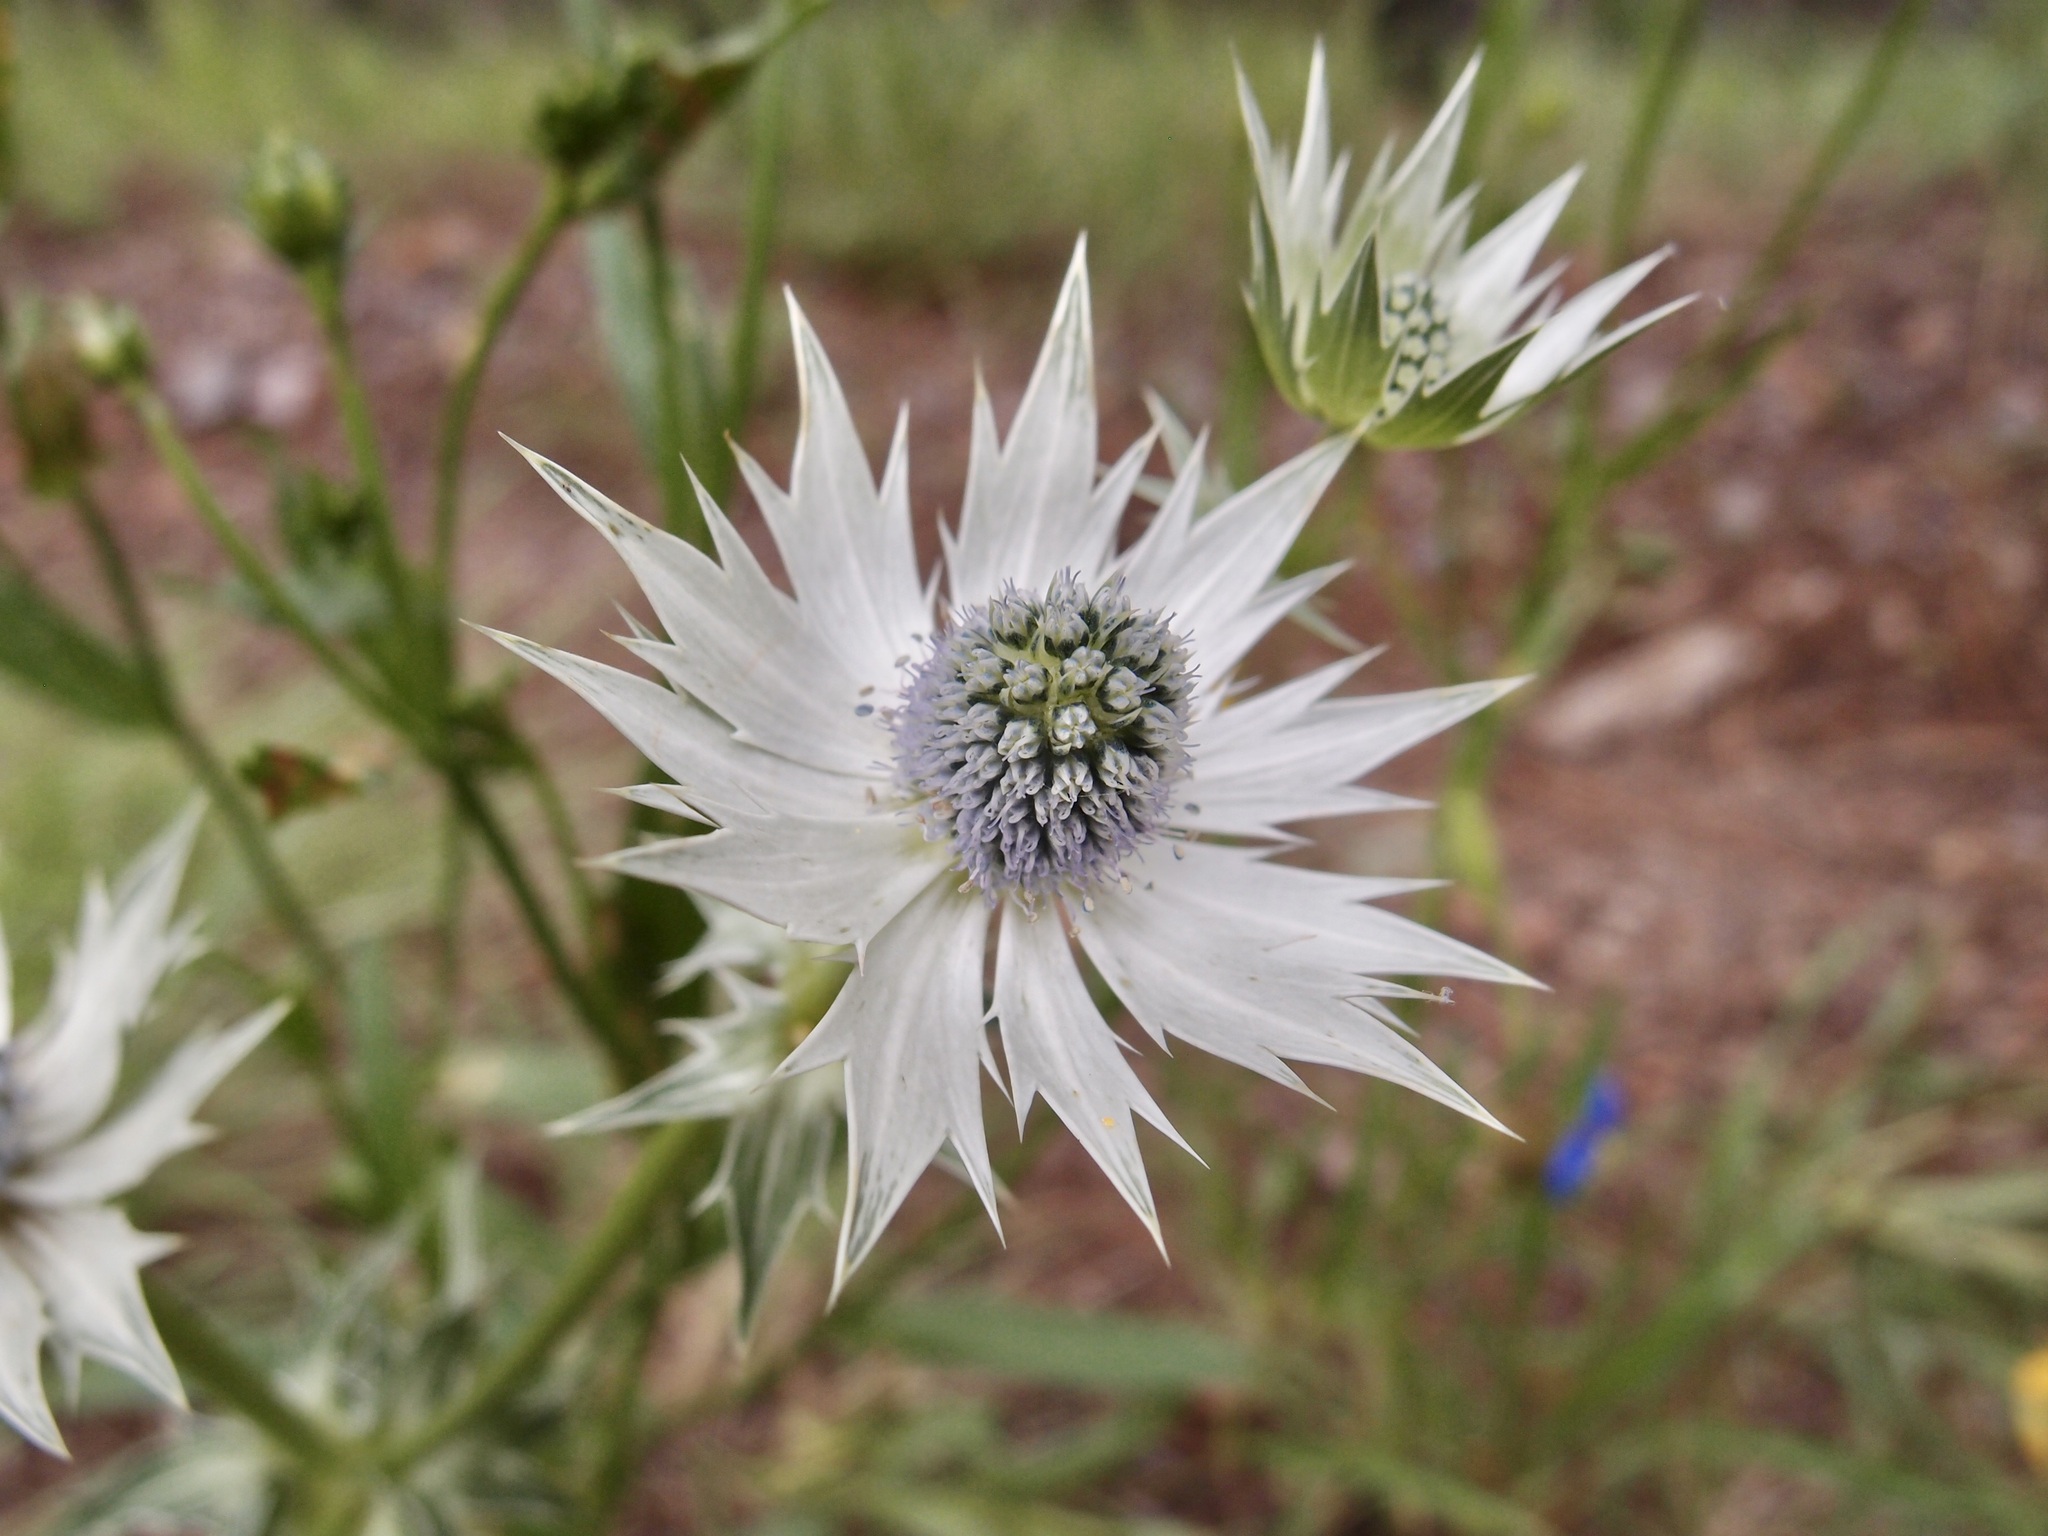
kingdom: Plantae
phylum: Tracheophyta
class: Magnoliopsida
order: Apiales
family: Apiaceae
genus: Eryngium
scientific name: Eryngium lemmonii
